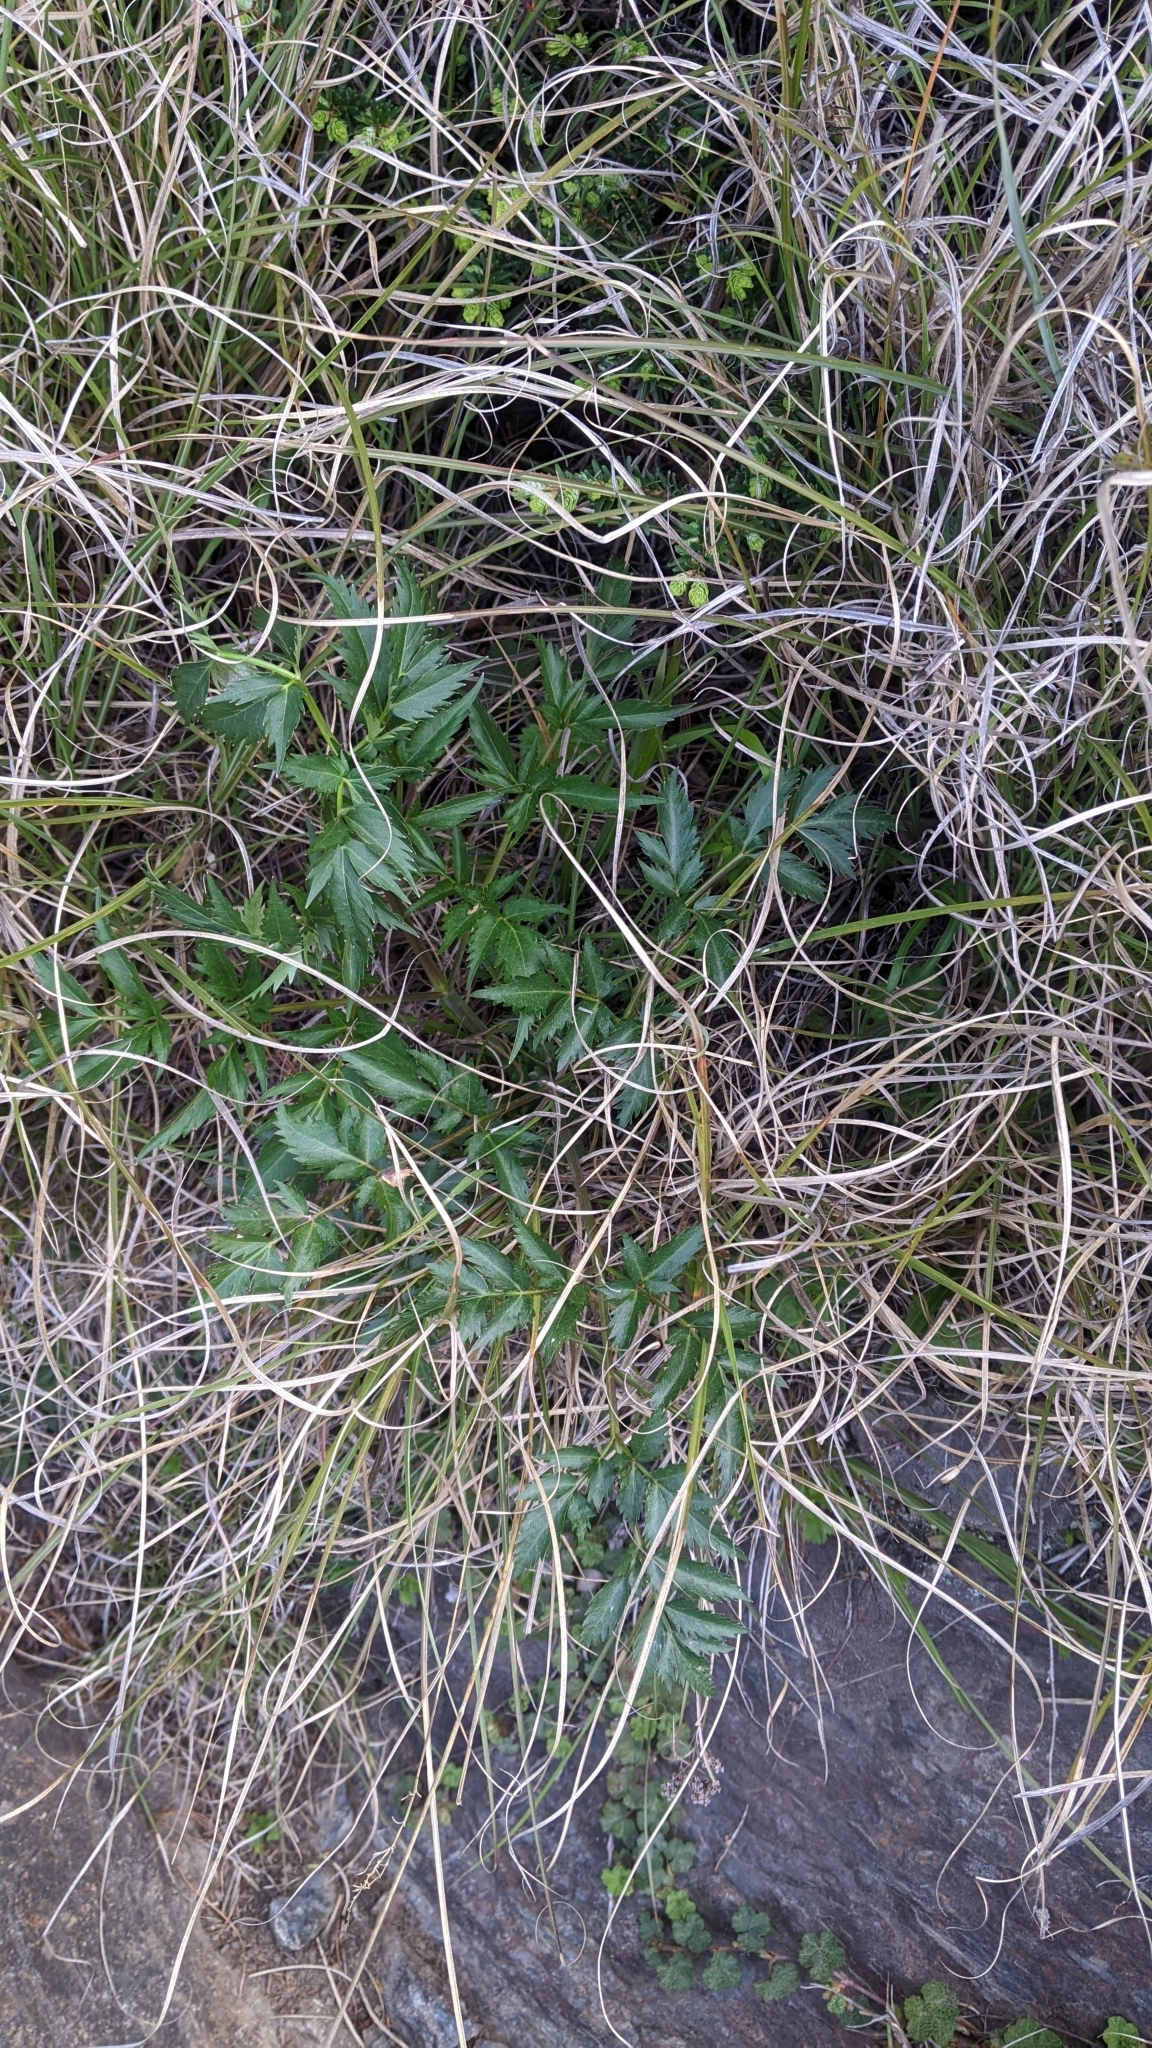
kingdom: Plantae
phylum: Tracheophyta
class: Magnoliopsida
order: Apiales
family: Apiaceae
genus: Angelica
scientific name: Angelica morii
